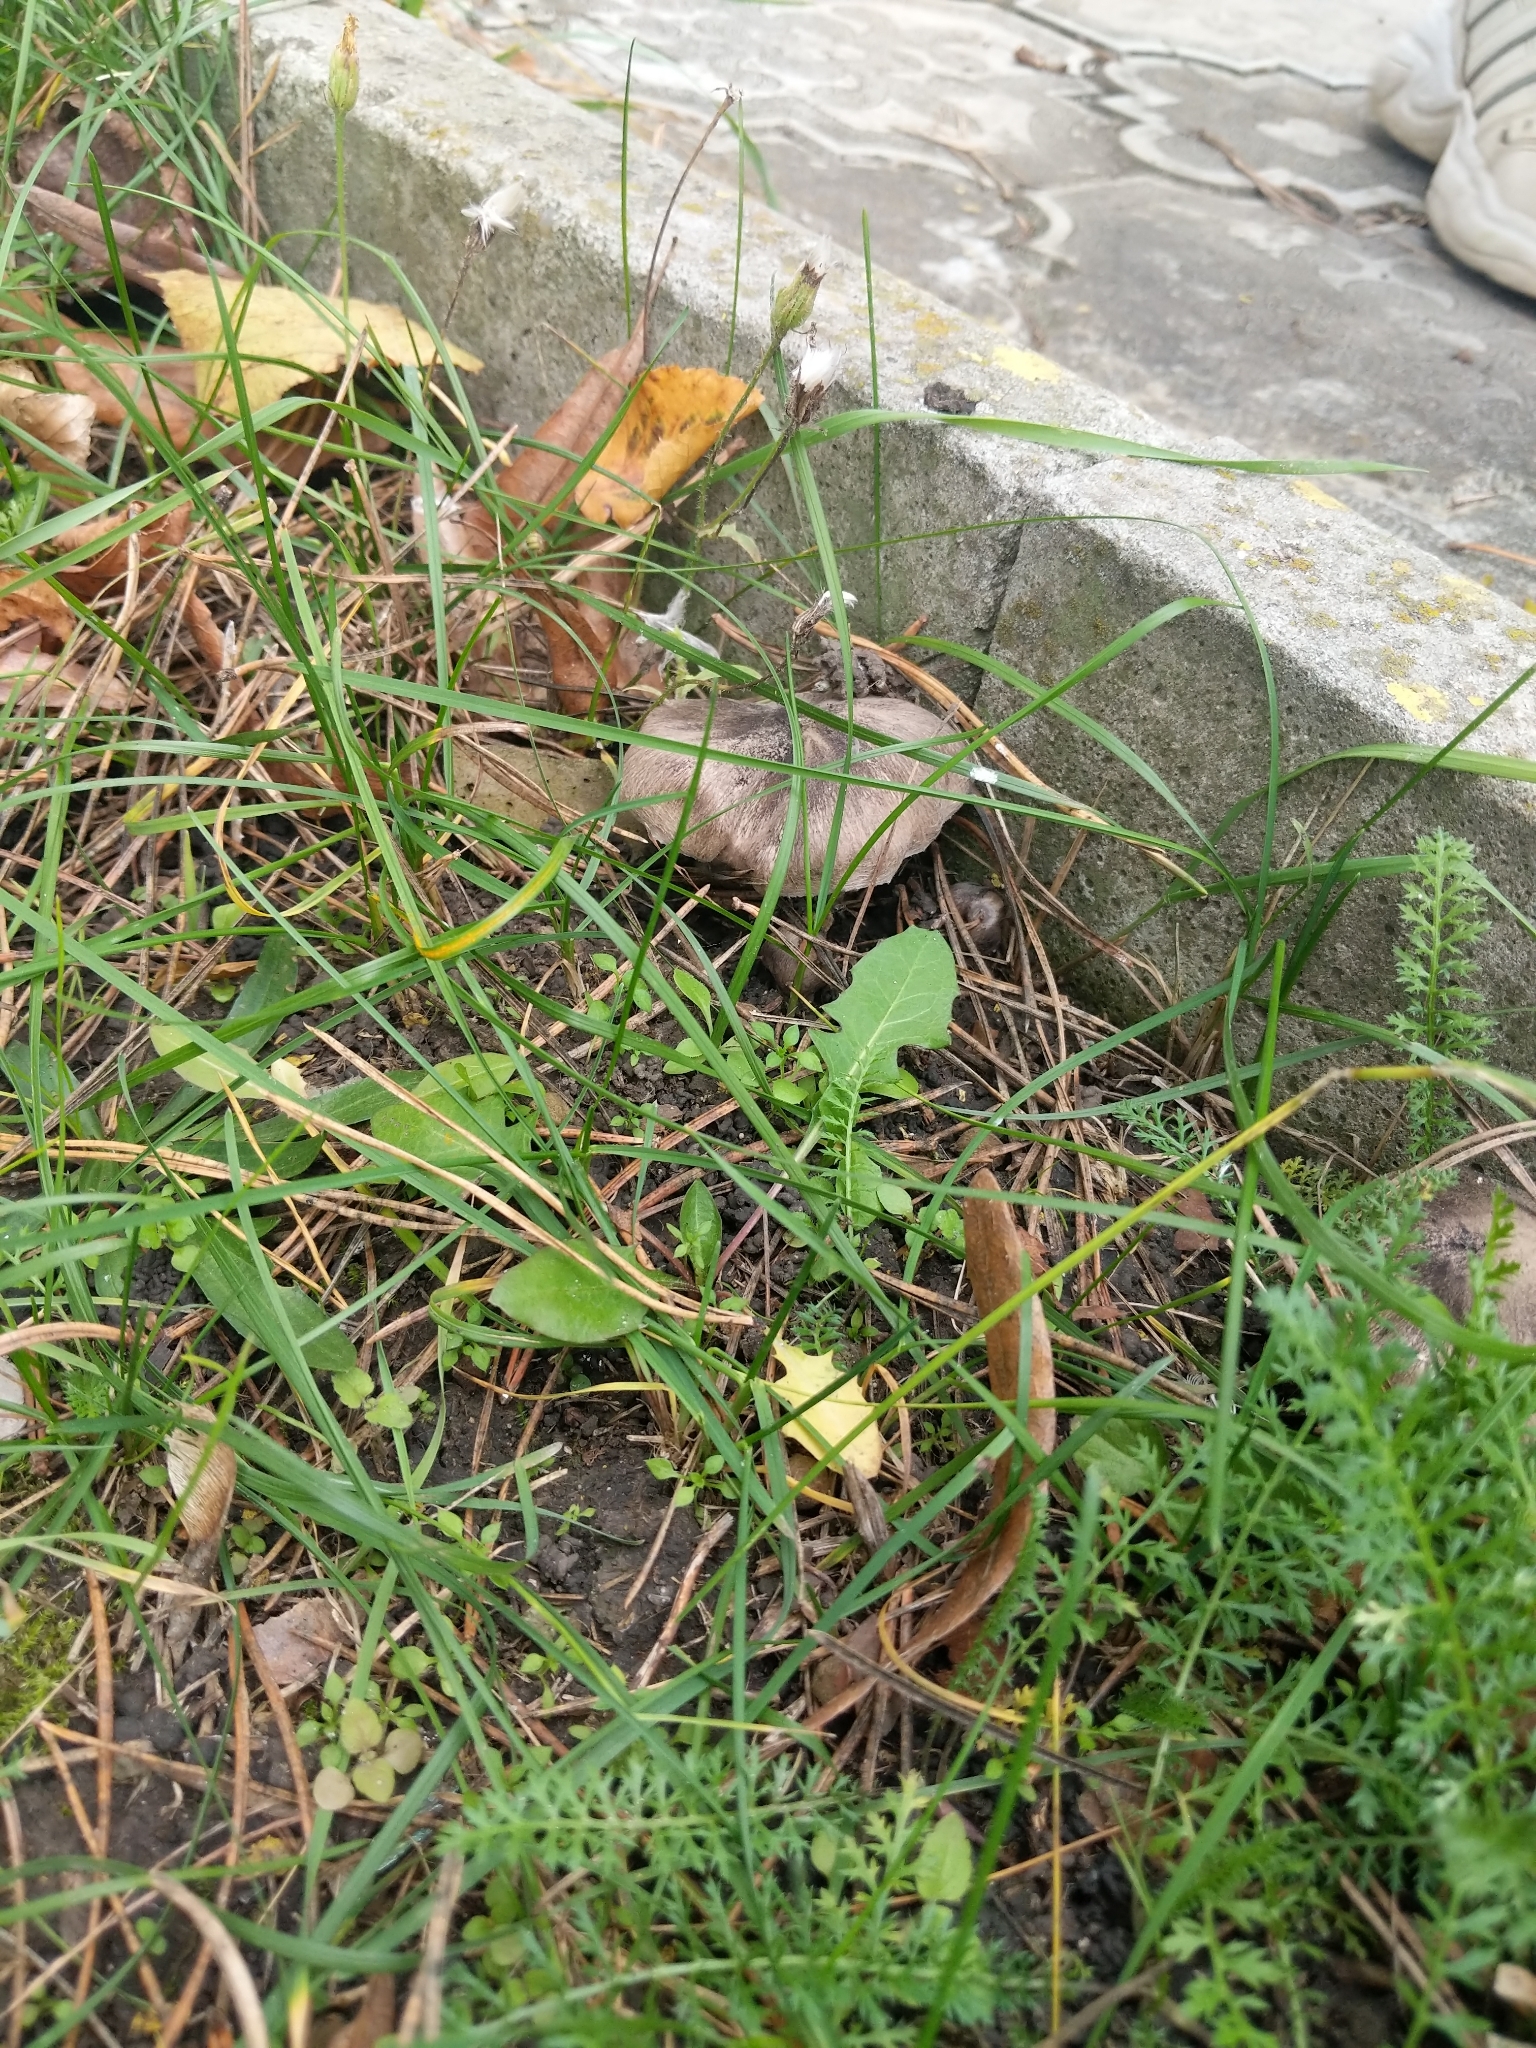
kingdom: Fungi
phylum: Basidiomycota
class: Agaricomycetes
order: Agaricales
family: Tricholomataceae
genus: Tricholoma
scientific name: Tricholoma terreum
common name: Grey knight
